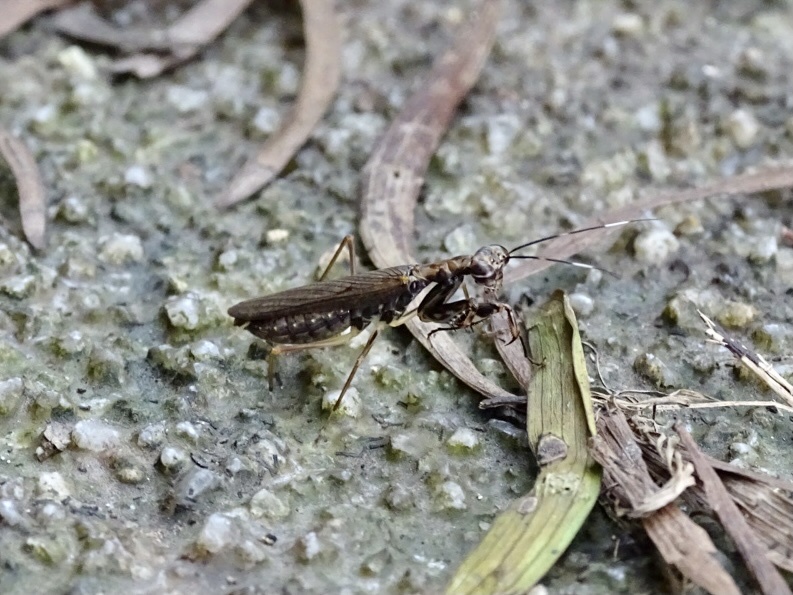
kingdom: Animalia
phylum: Arthropoda
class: Insecta
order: Mantodea
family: Gonypetidae
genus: Spilomantis
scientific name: Spilomantis occipitalis
